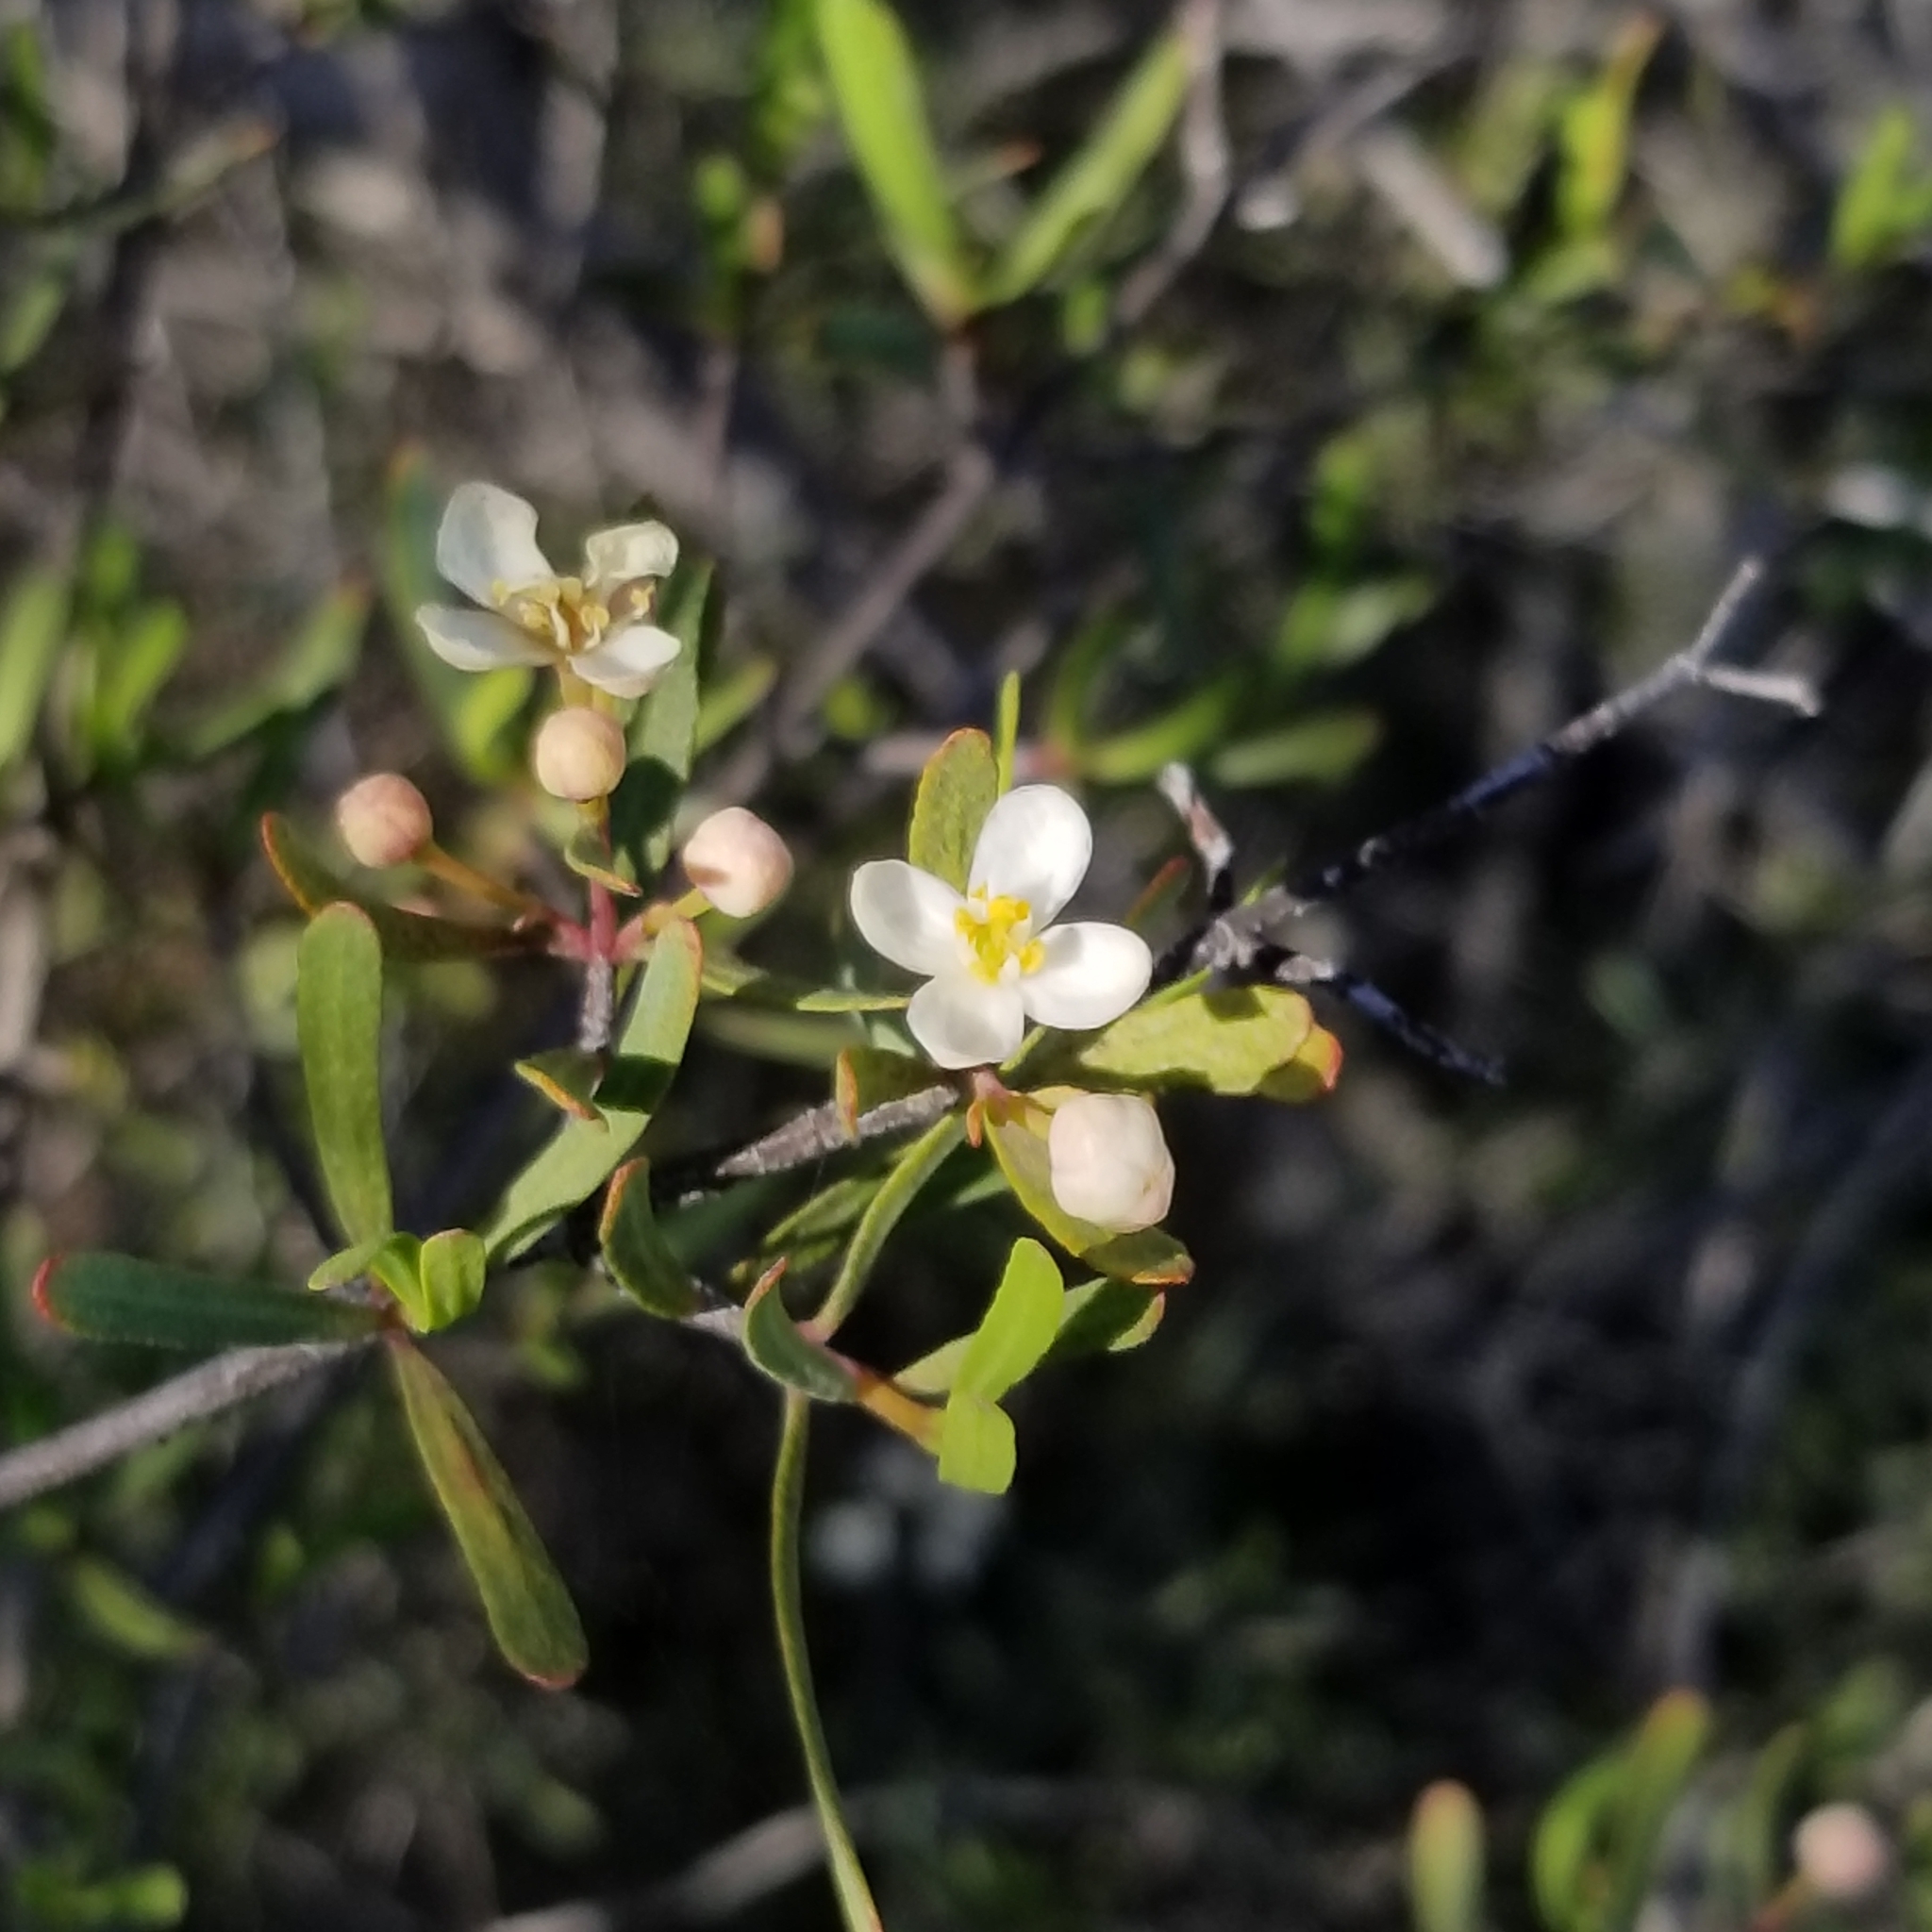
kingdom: Plantae
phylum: Tracheophyta
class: Magnoliopsida
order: Sapindales
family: Rutaceae
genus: Cneoridium
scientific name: Cneoridium dumosum
